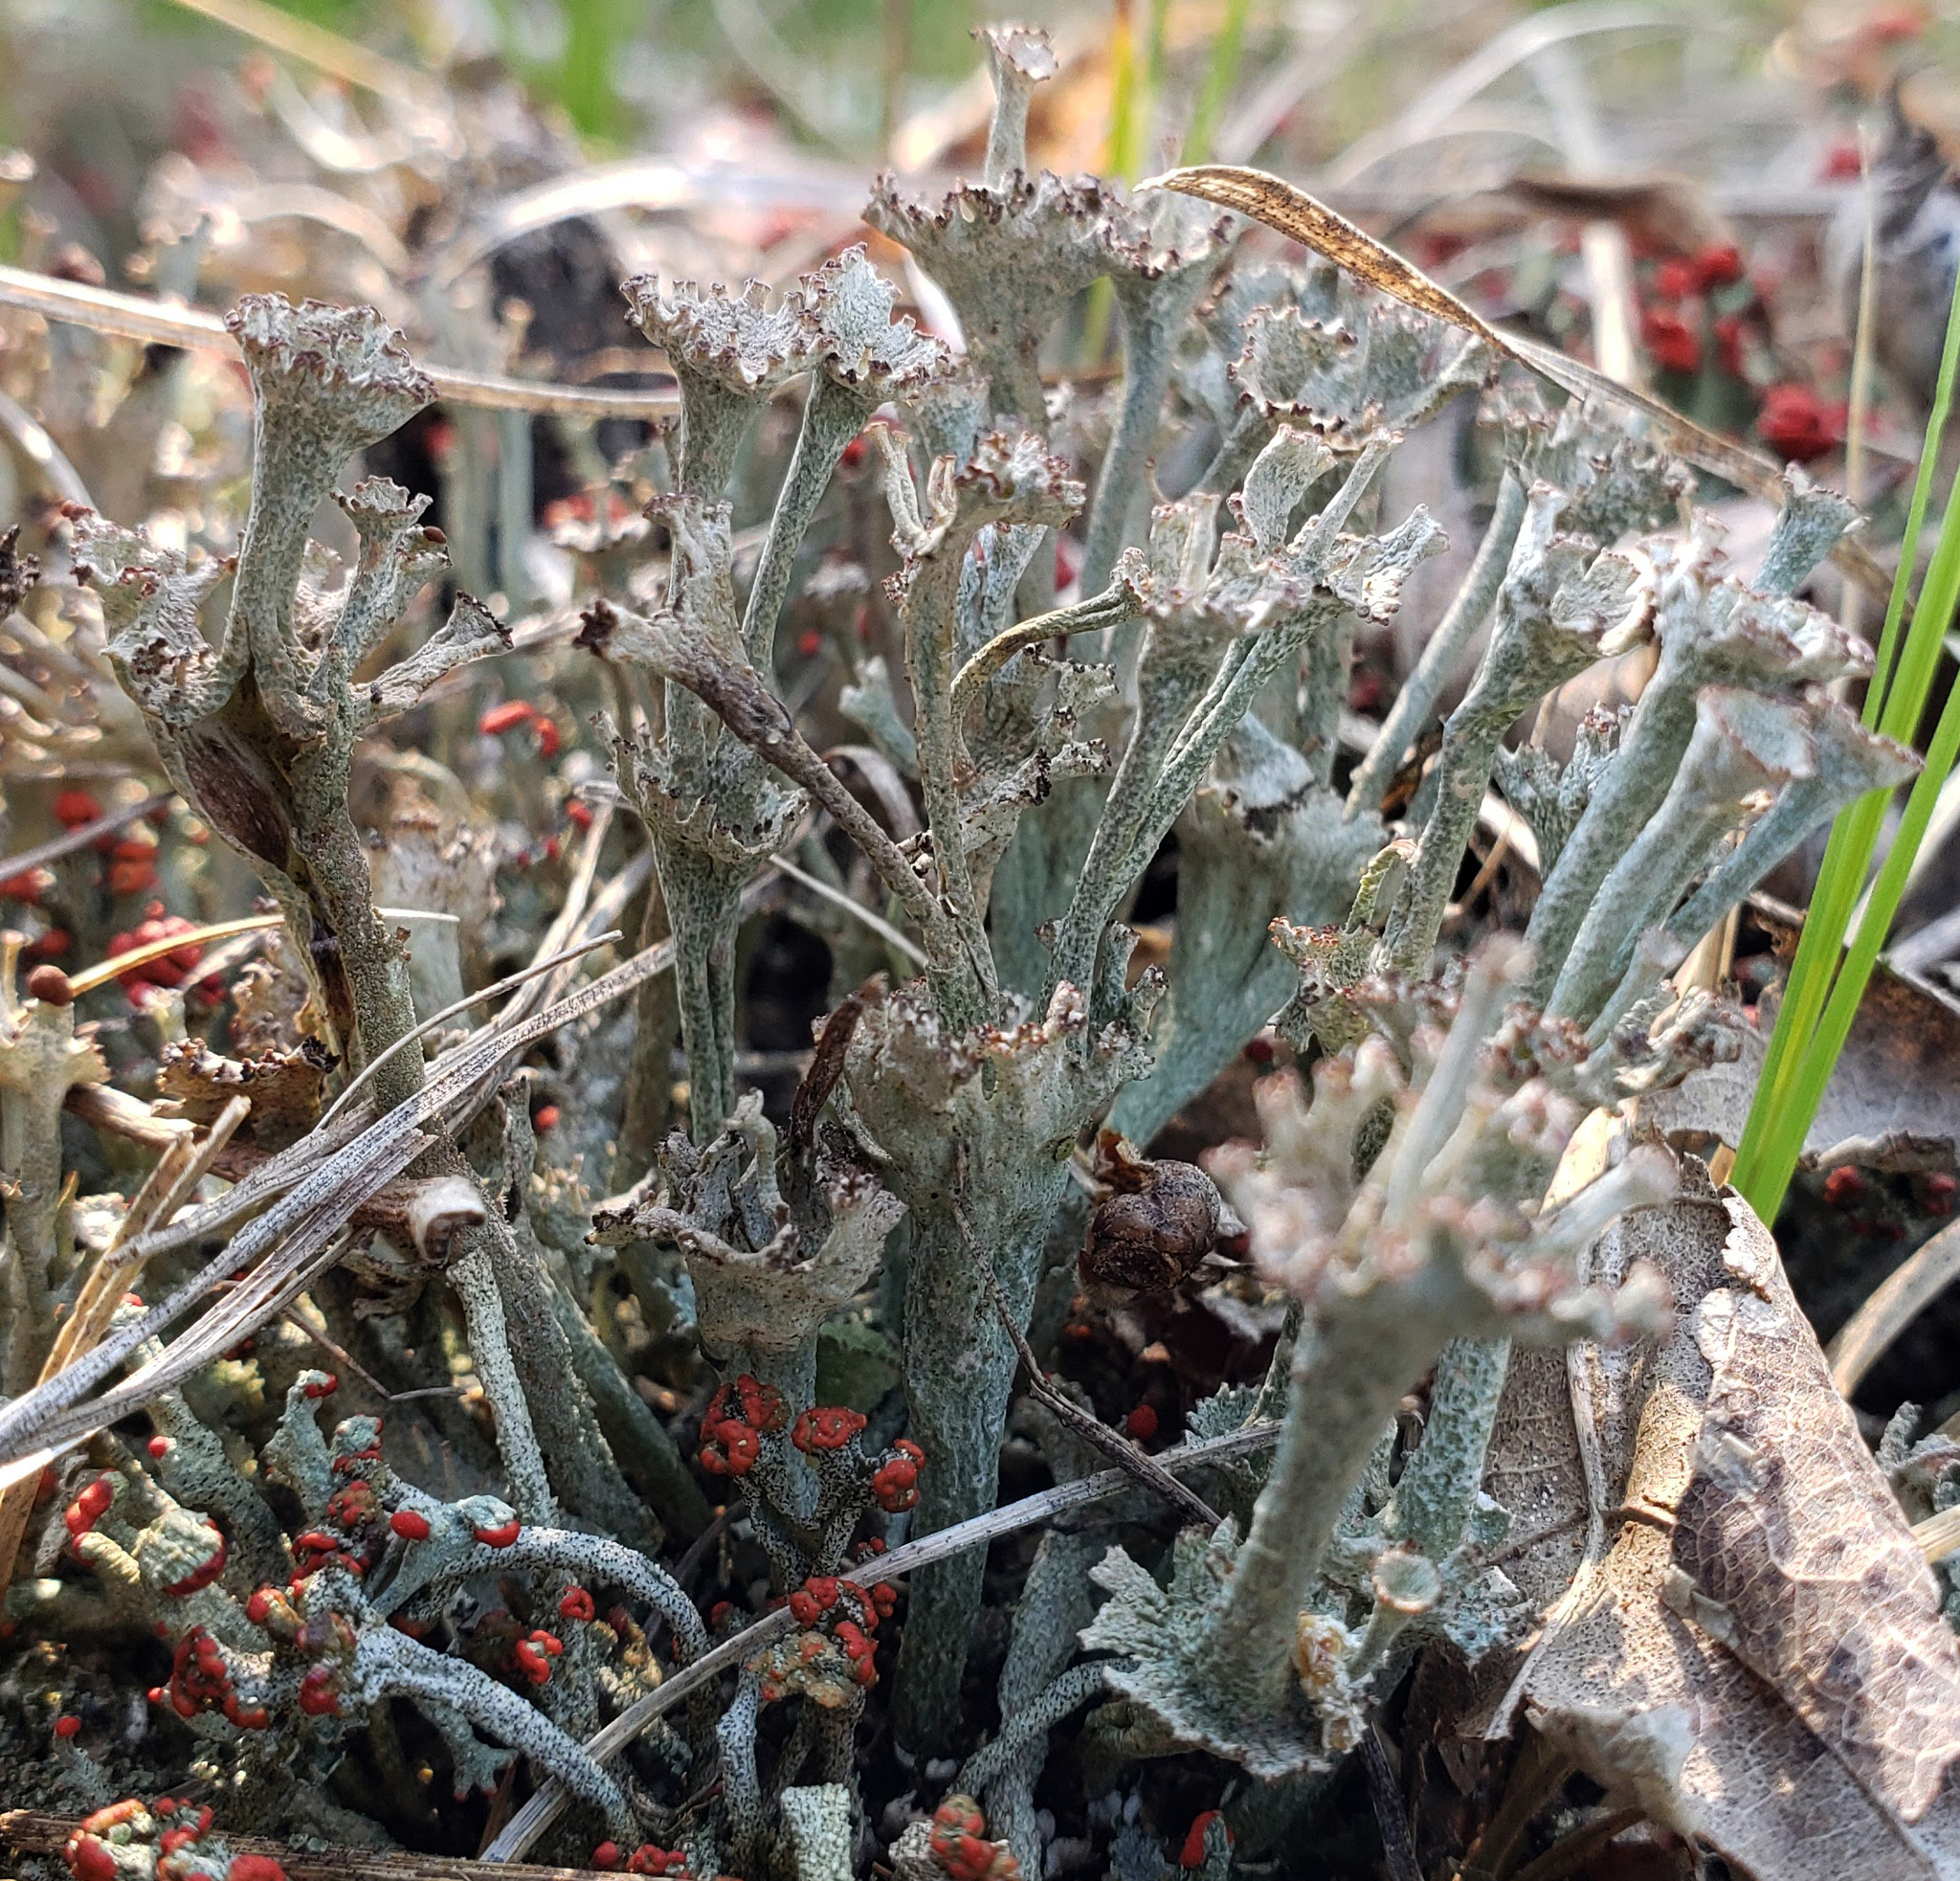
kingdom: Fungi
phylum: Ascomycota
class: Lecanoromycetes
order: Lecanorales
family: Cladoniaceae
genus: Cladonia
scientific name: Cladonia cervicornis
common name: Browned pixie-cup lichen
